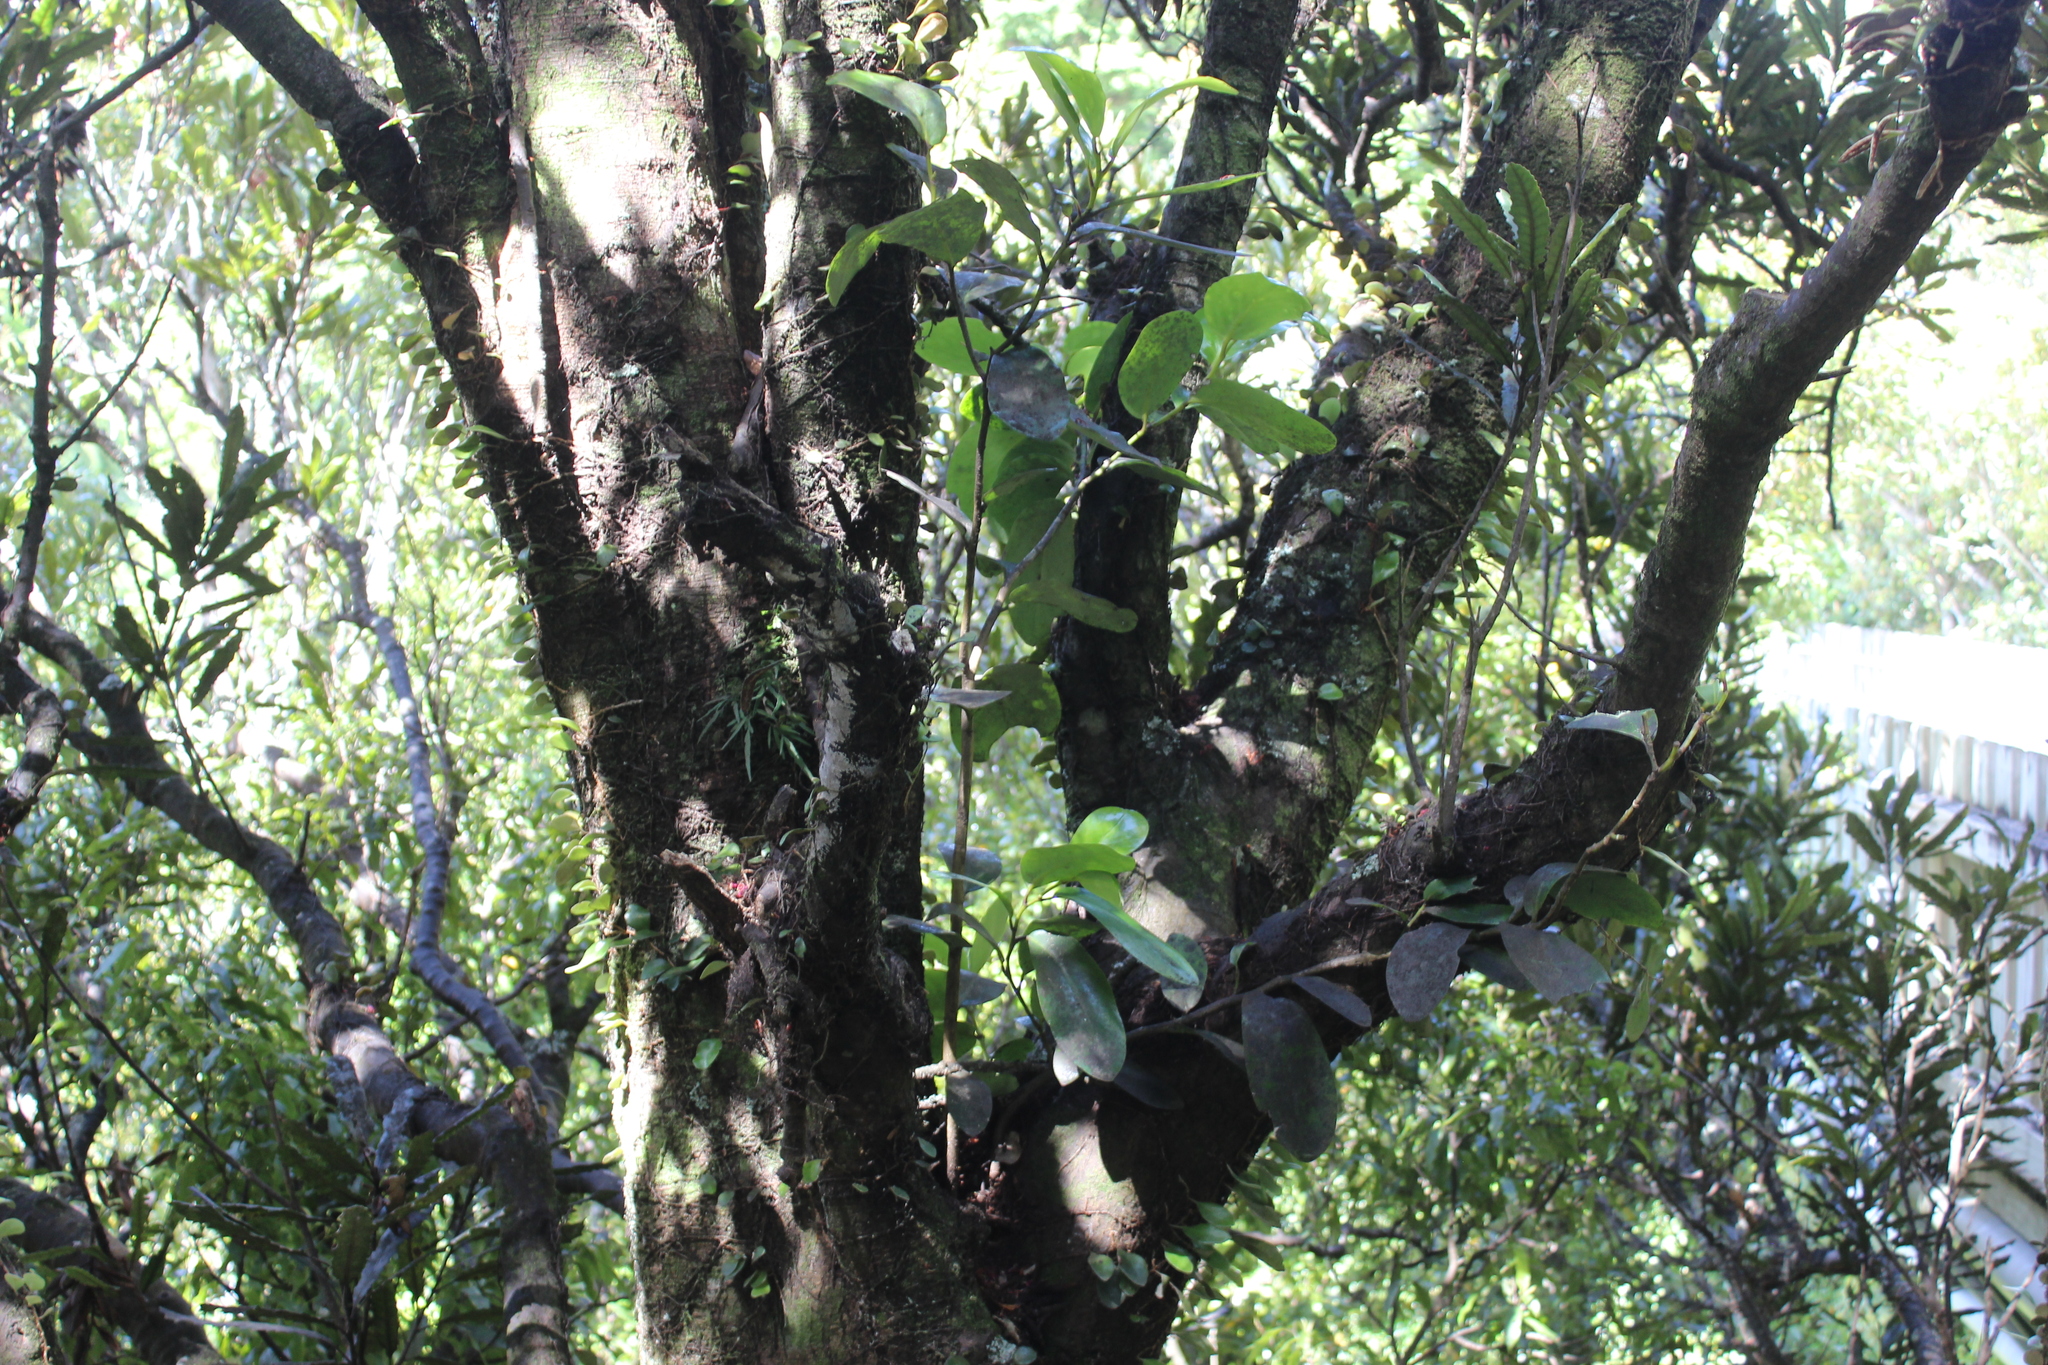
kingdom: Plantae
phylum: Tracheophyta
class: Magnoliopsida
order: Apiales
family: Griseliniaceae
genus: Griselinia
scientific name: Griselinia lucida
